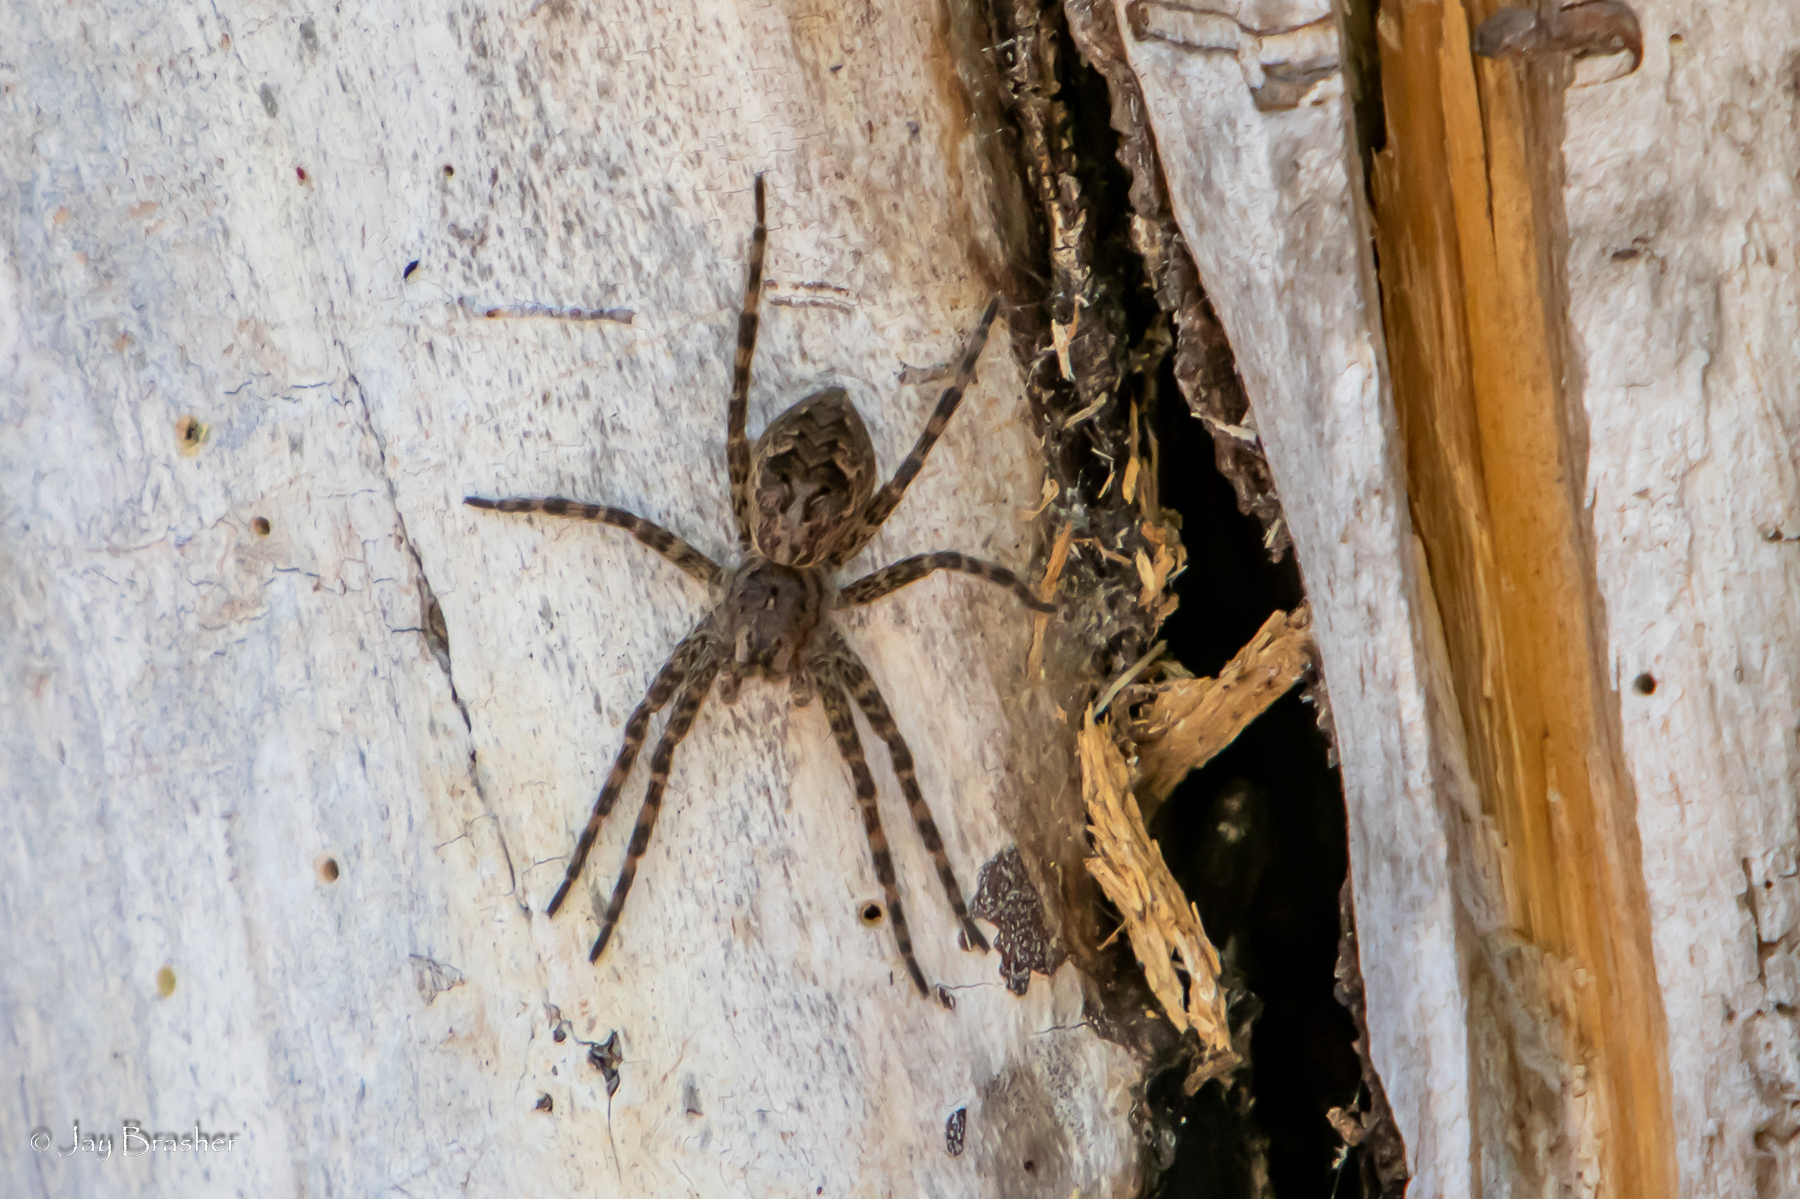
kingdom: Animalia
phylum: Arthropoda
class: Arachnida
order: Araneae
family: Pisauridae
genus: Dolomedes
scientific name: Dolomedes tenebrosus
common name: Dark fishing spider
